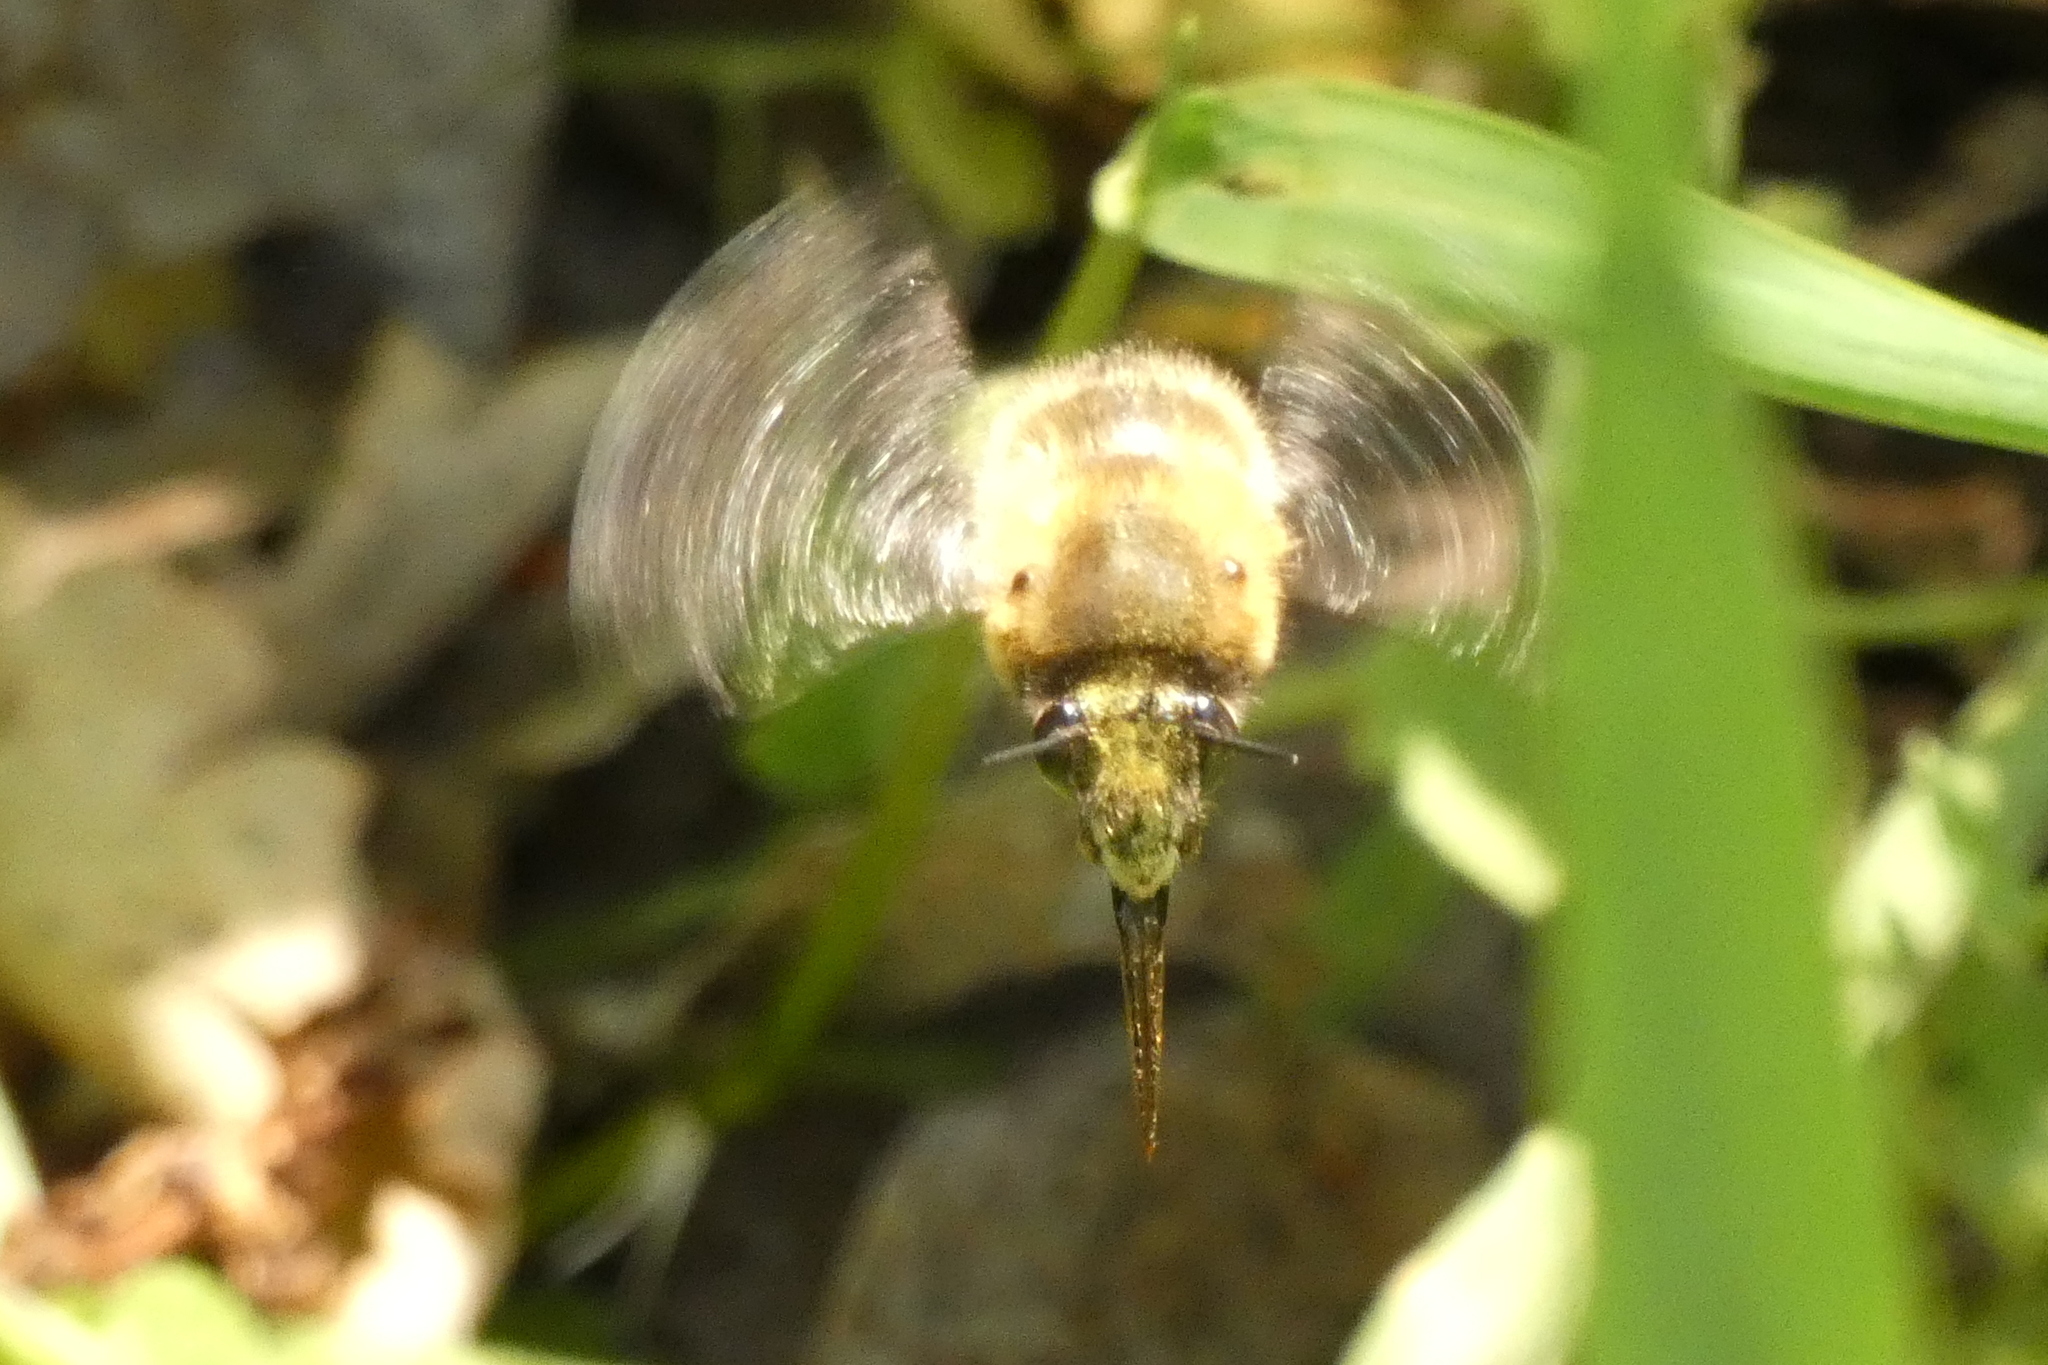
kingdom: Animalia
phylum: Arthropoda
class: Insecta
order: Hymenoptera
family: Apidae
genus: Anthophora
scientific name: Anthophora plumipes
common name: Hairy-footed flower bee
